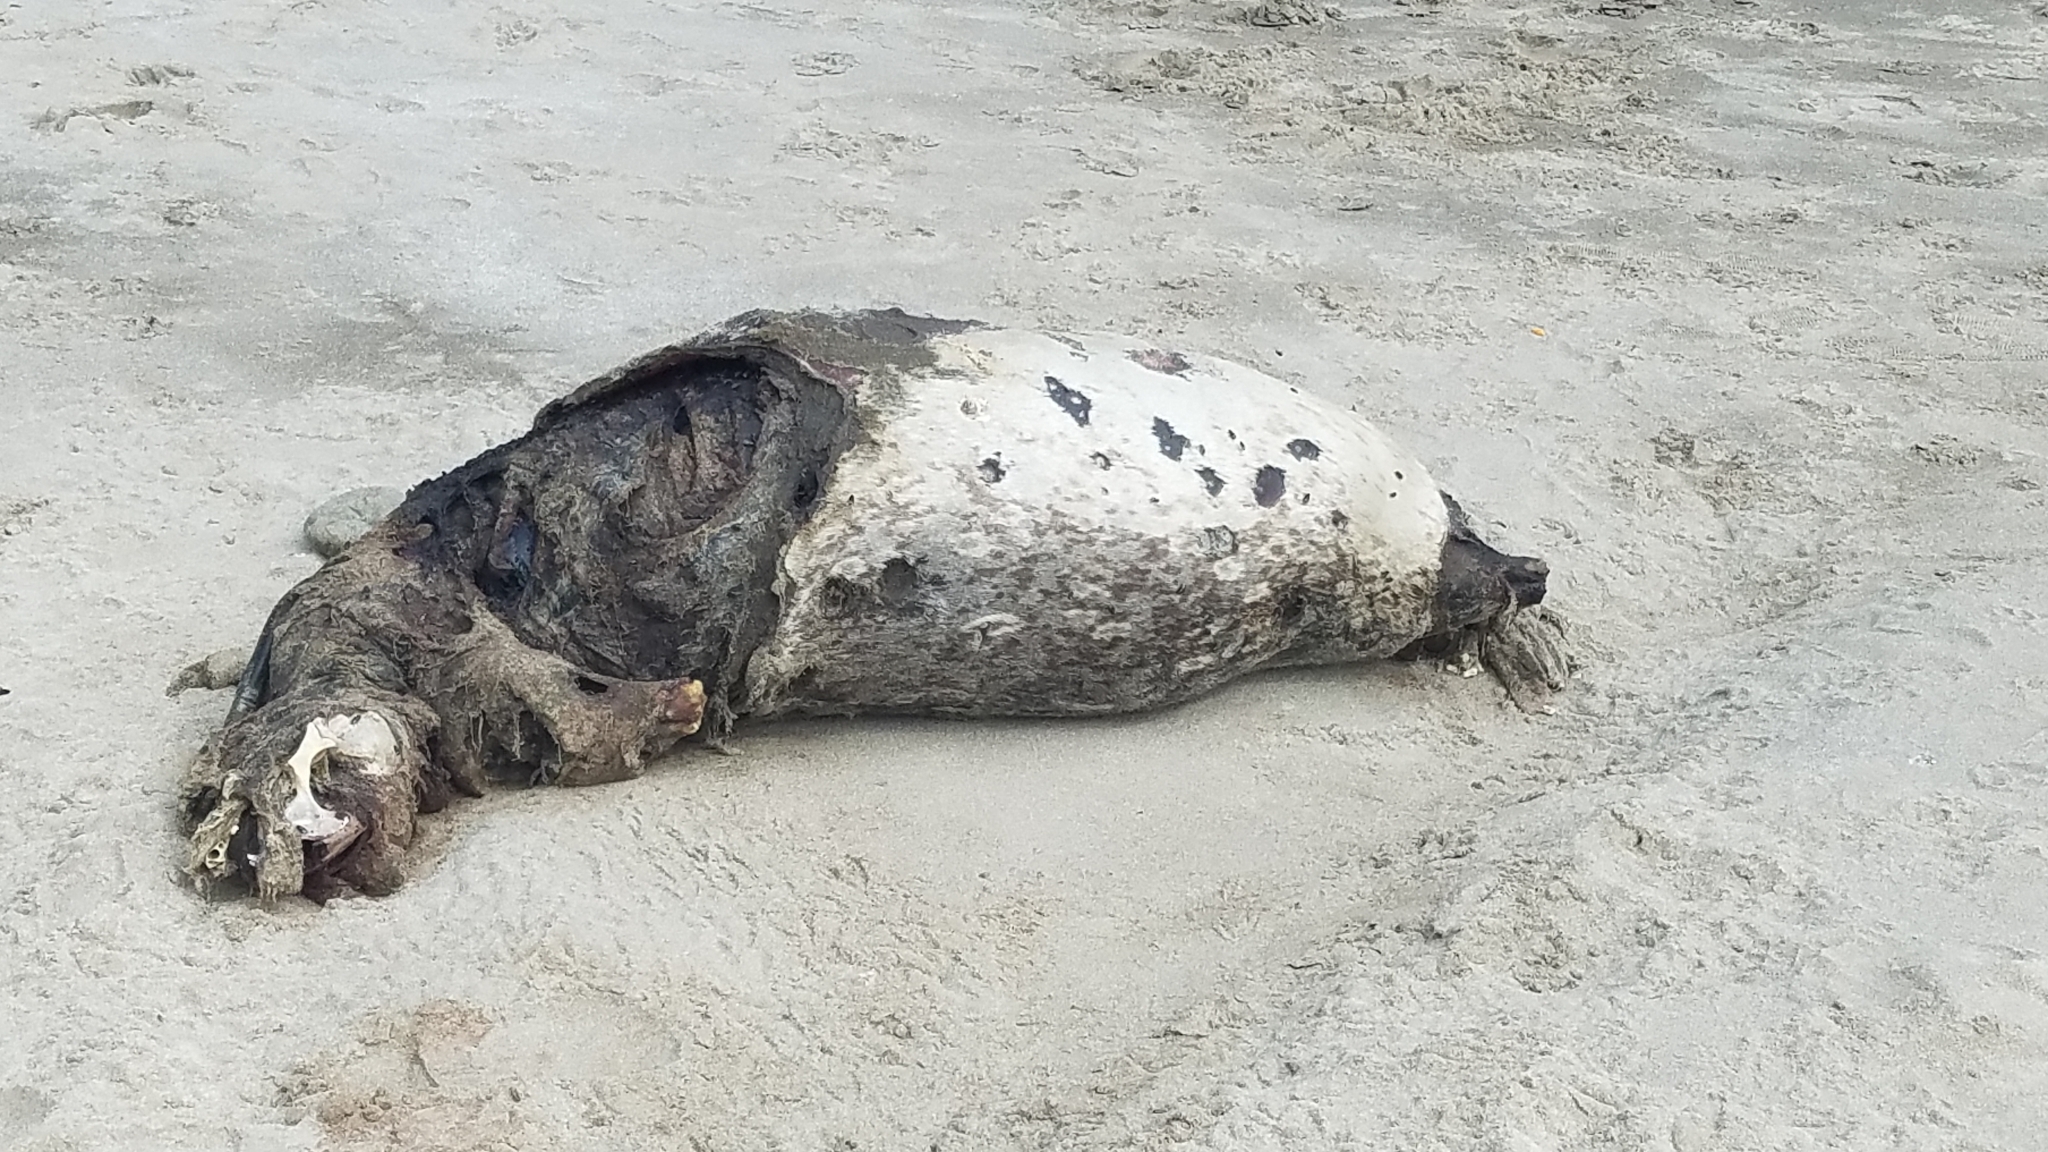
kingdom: Animalia
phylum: Chordata
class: Mammalia
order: Carnivora
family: Phocidae
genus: Phoca
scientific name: Phoca vitulina
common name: Harbor seal
